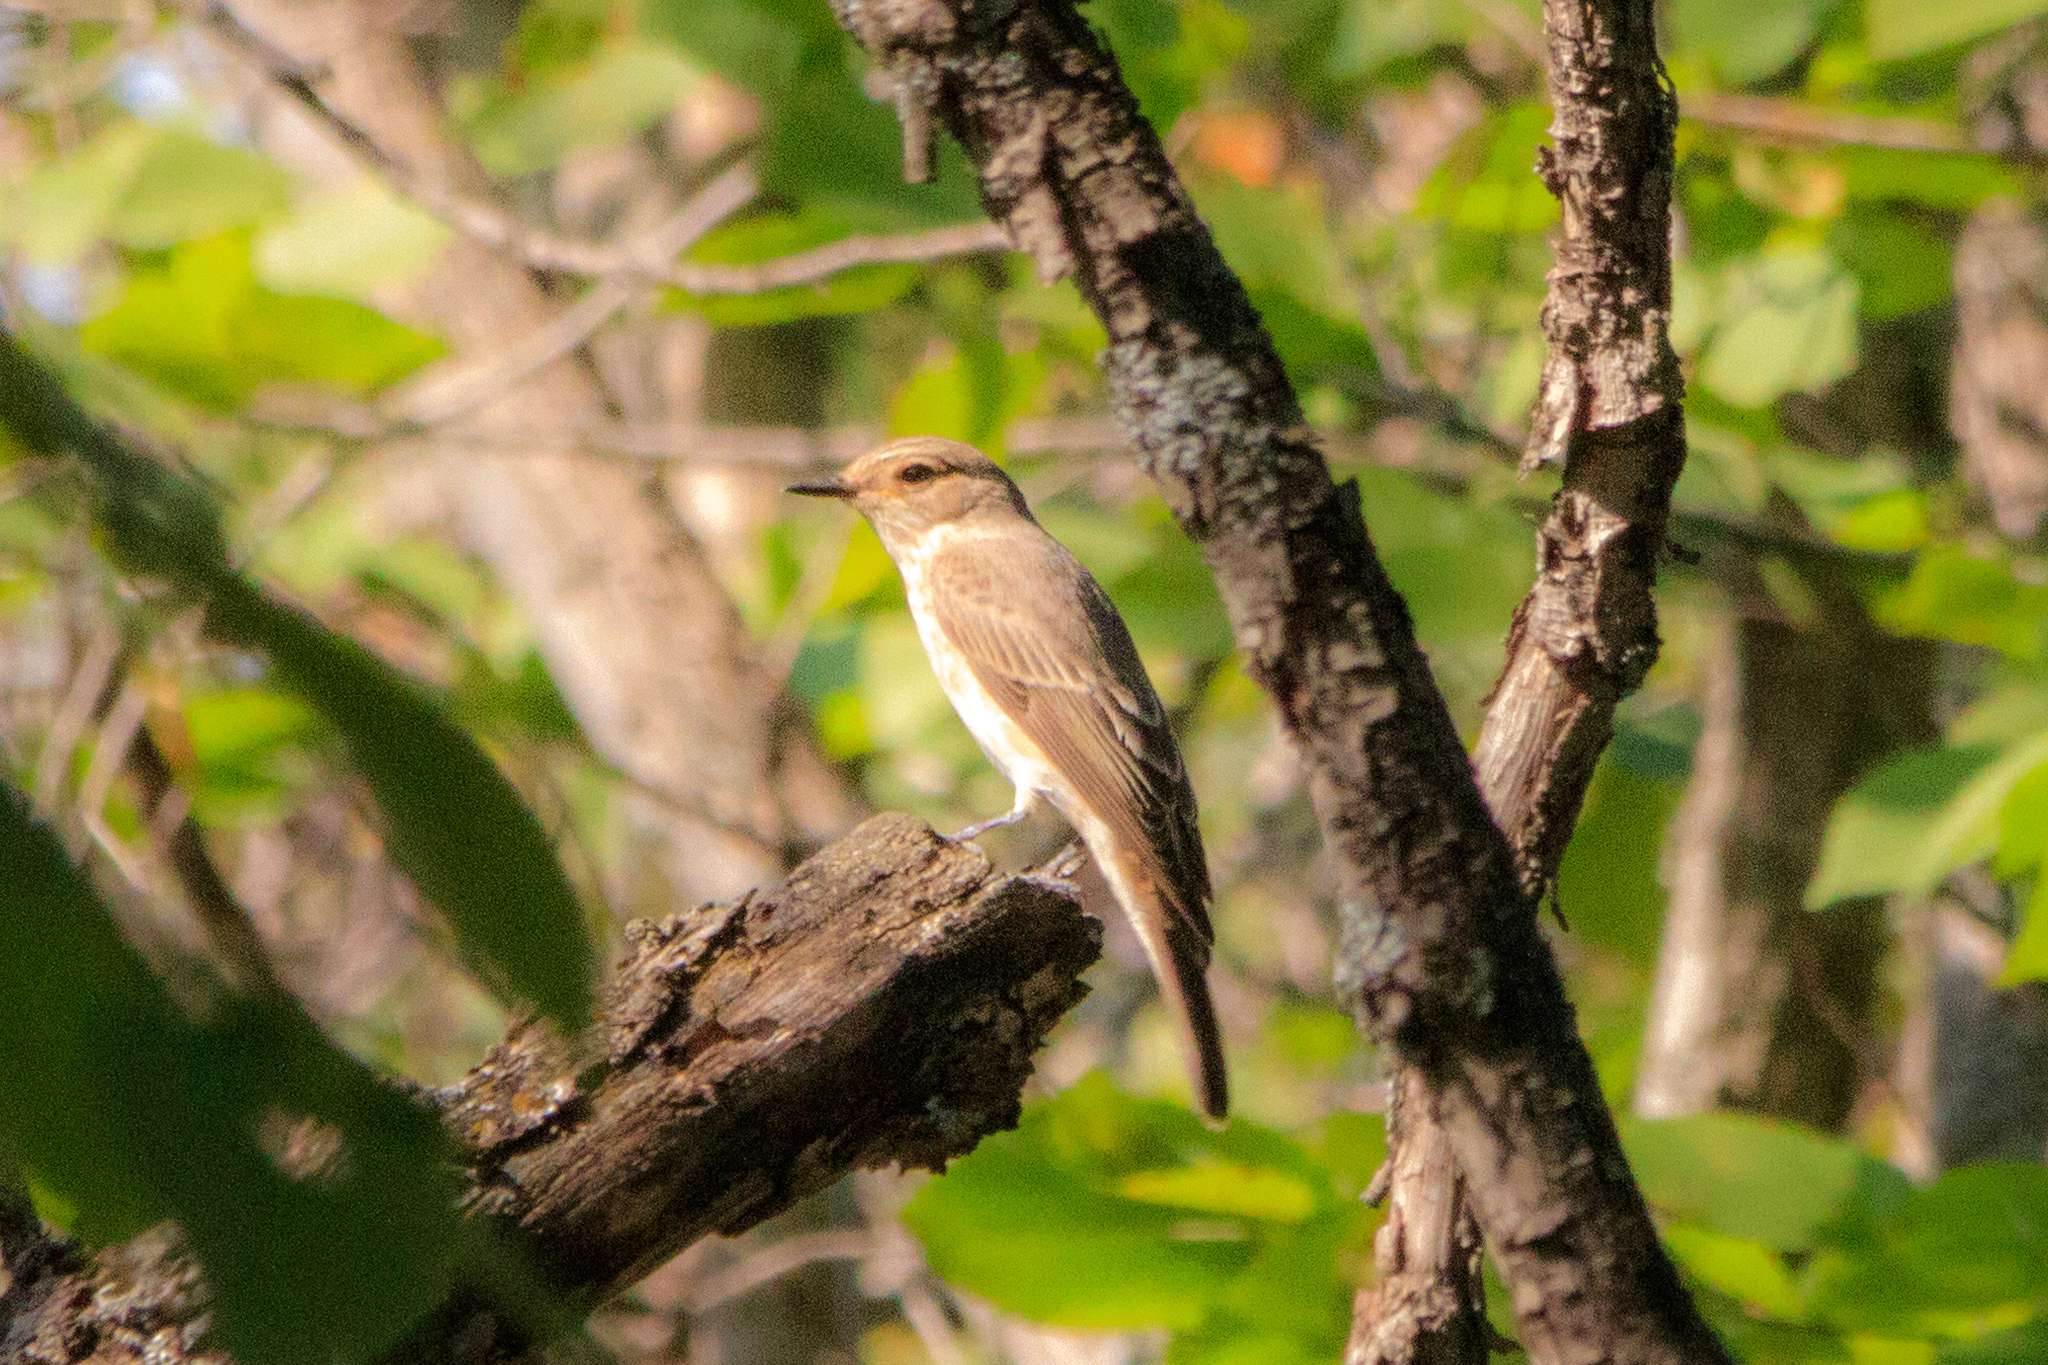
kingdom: Animalia
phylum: Chordata
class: Aves
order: Passeriformes
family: Muscicapidae
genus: Muscicapa
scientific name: Muscicapa striata
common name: Spotted flycatcher
